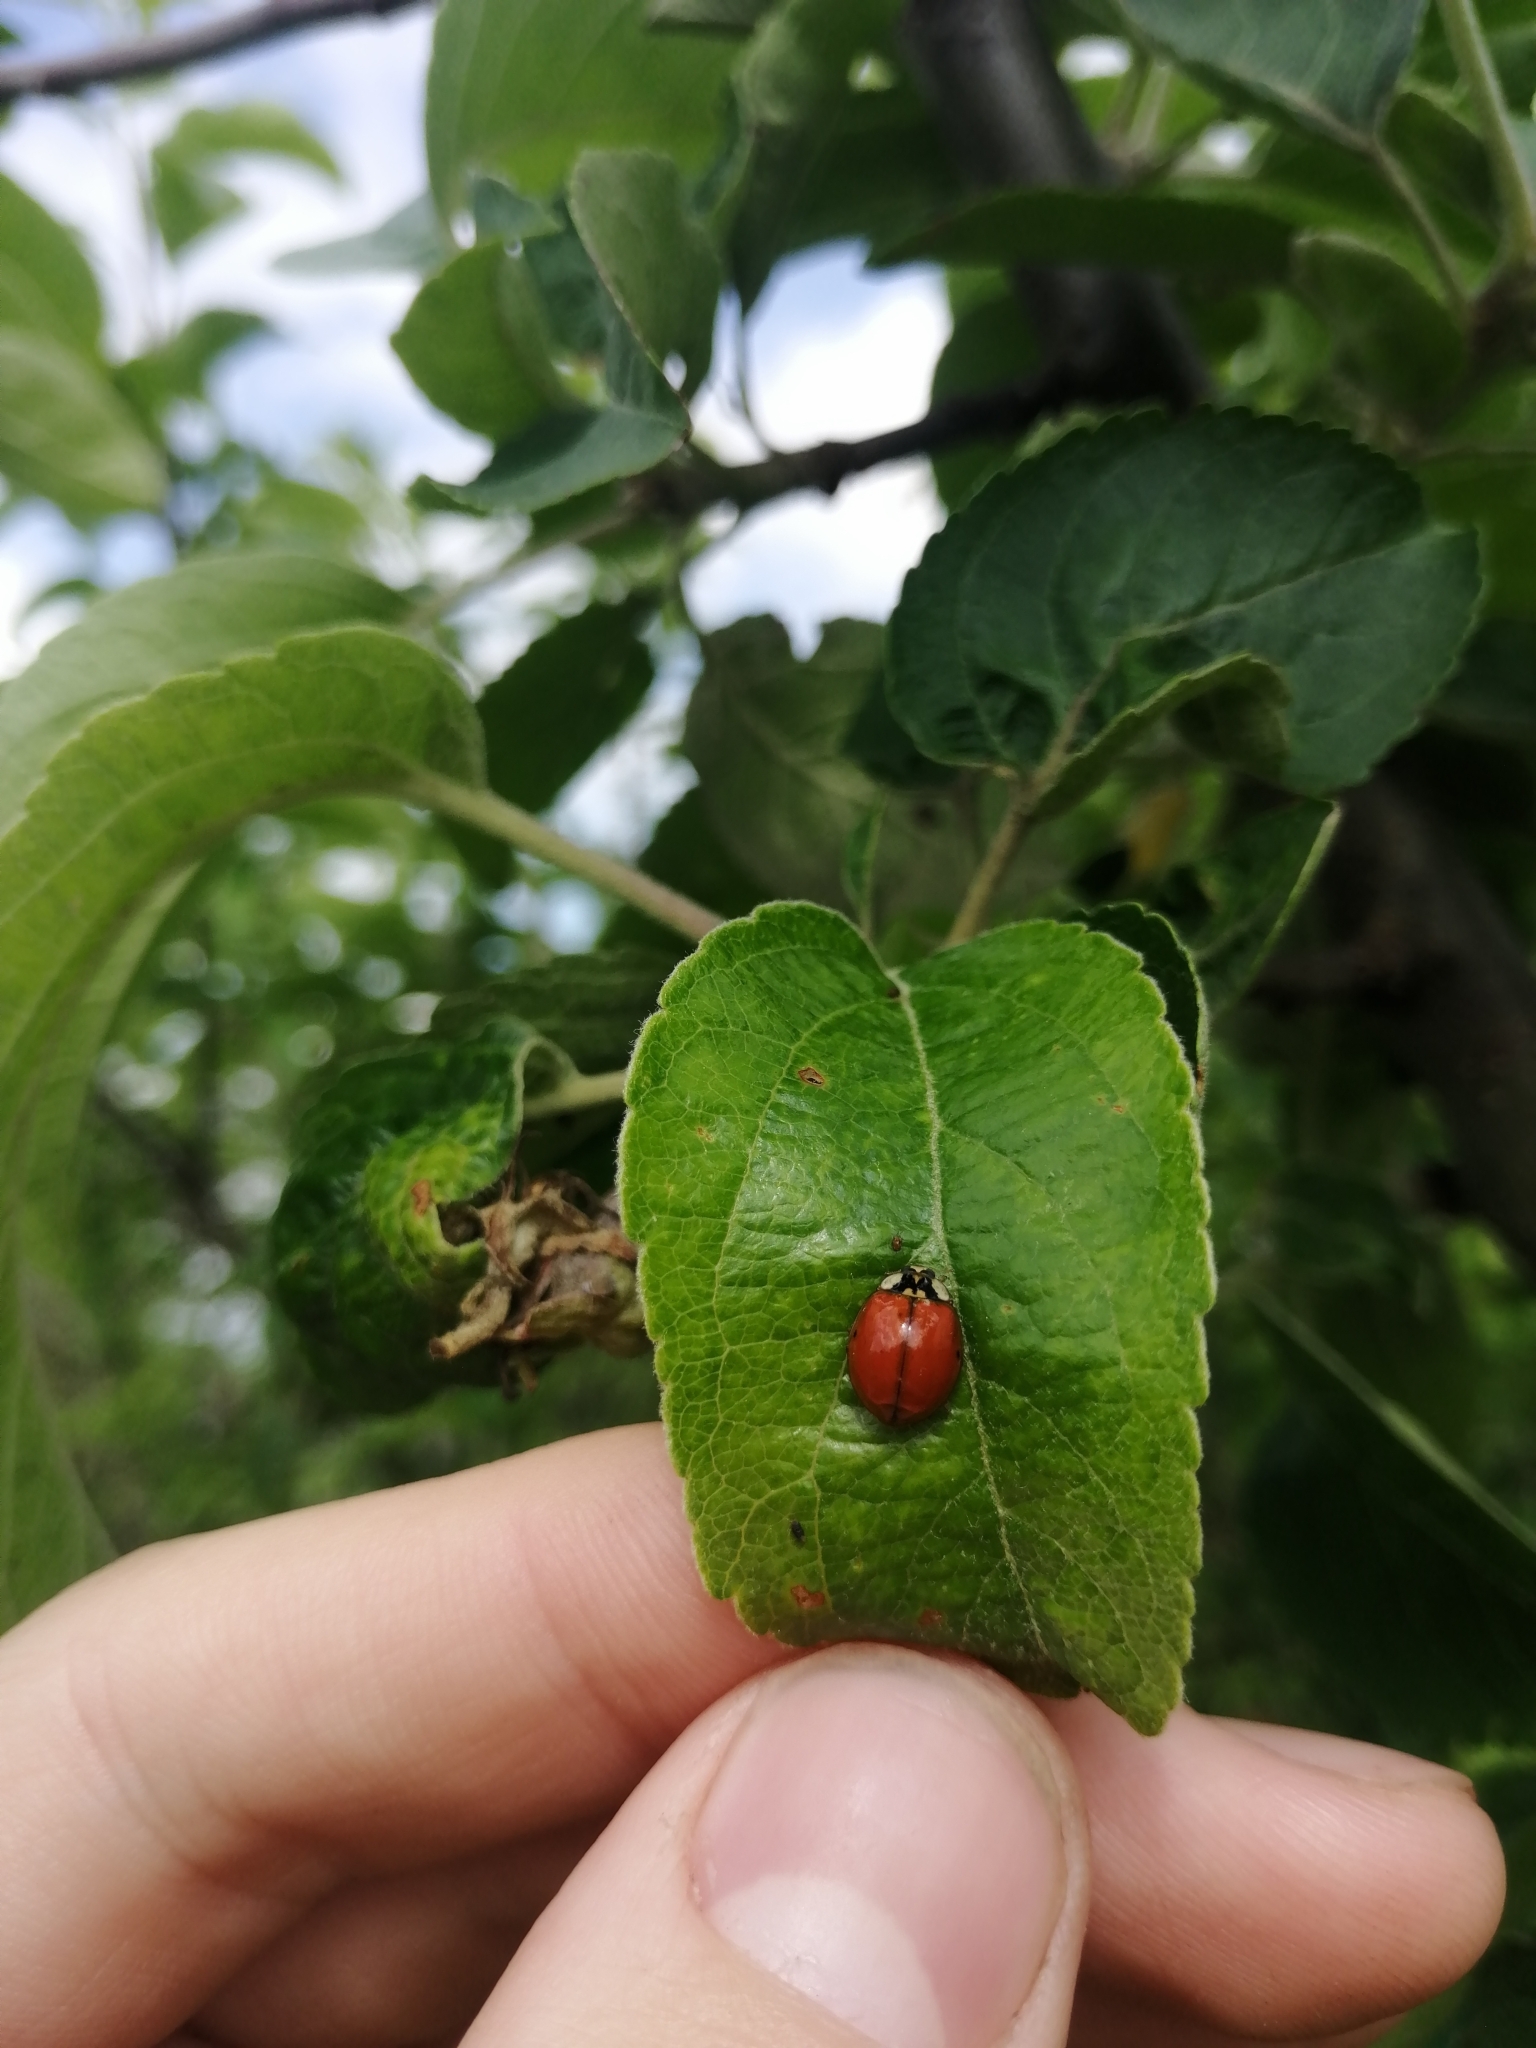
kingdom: Animalia
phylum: Arthropoda
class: Insecta
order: Coleoptera
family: Coccinellidae
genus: Harmonia
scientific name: Harmonia axyridis
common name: Harlequin ladybird
